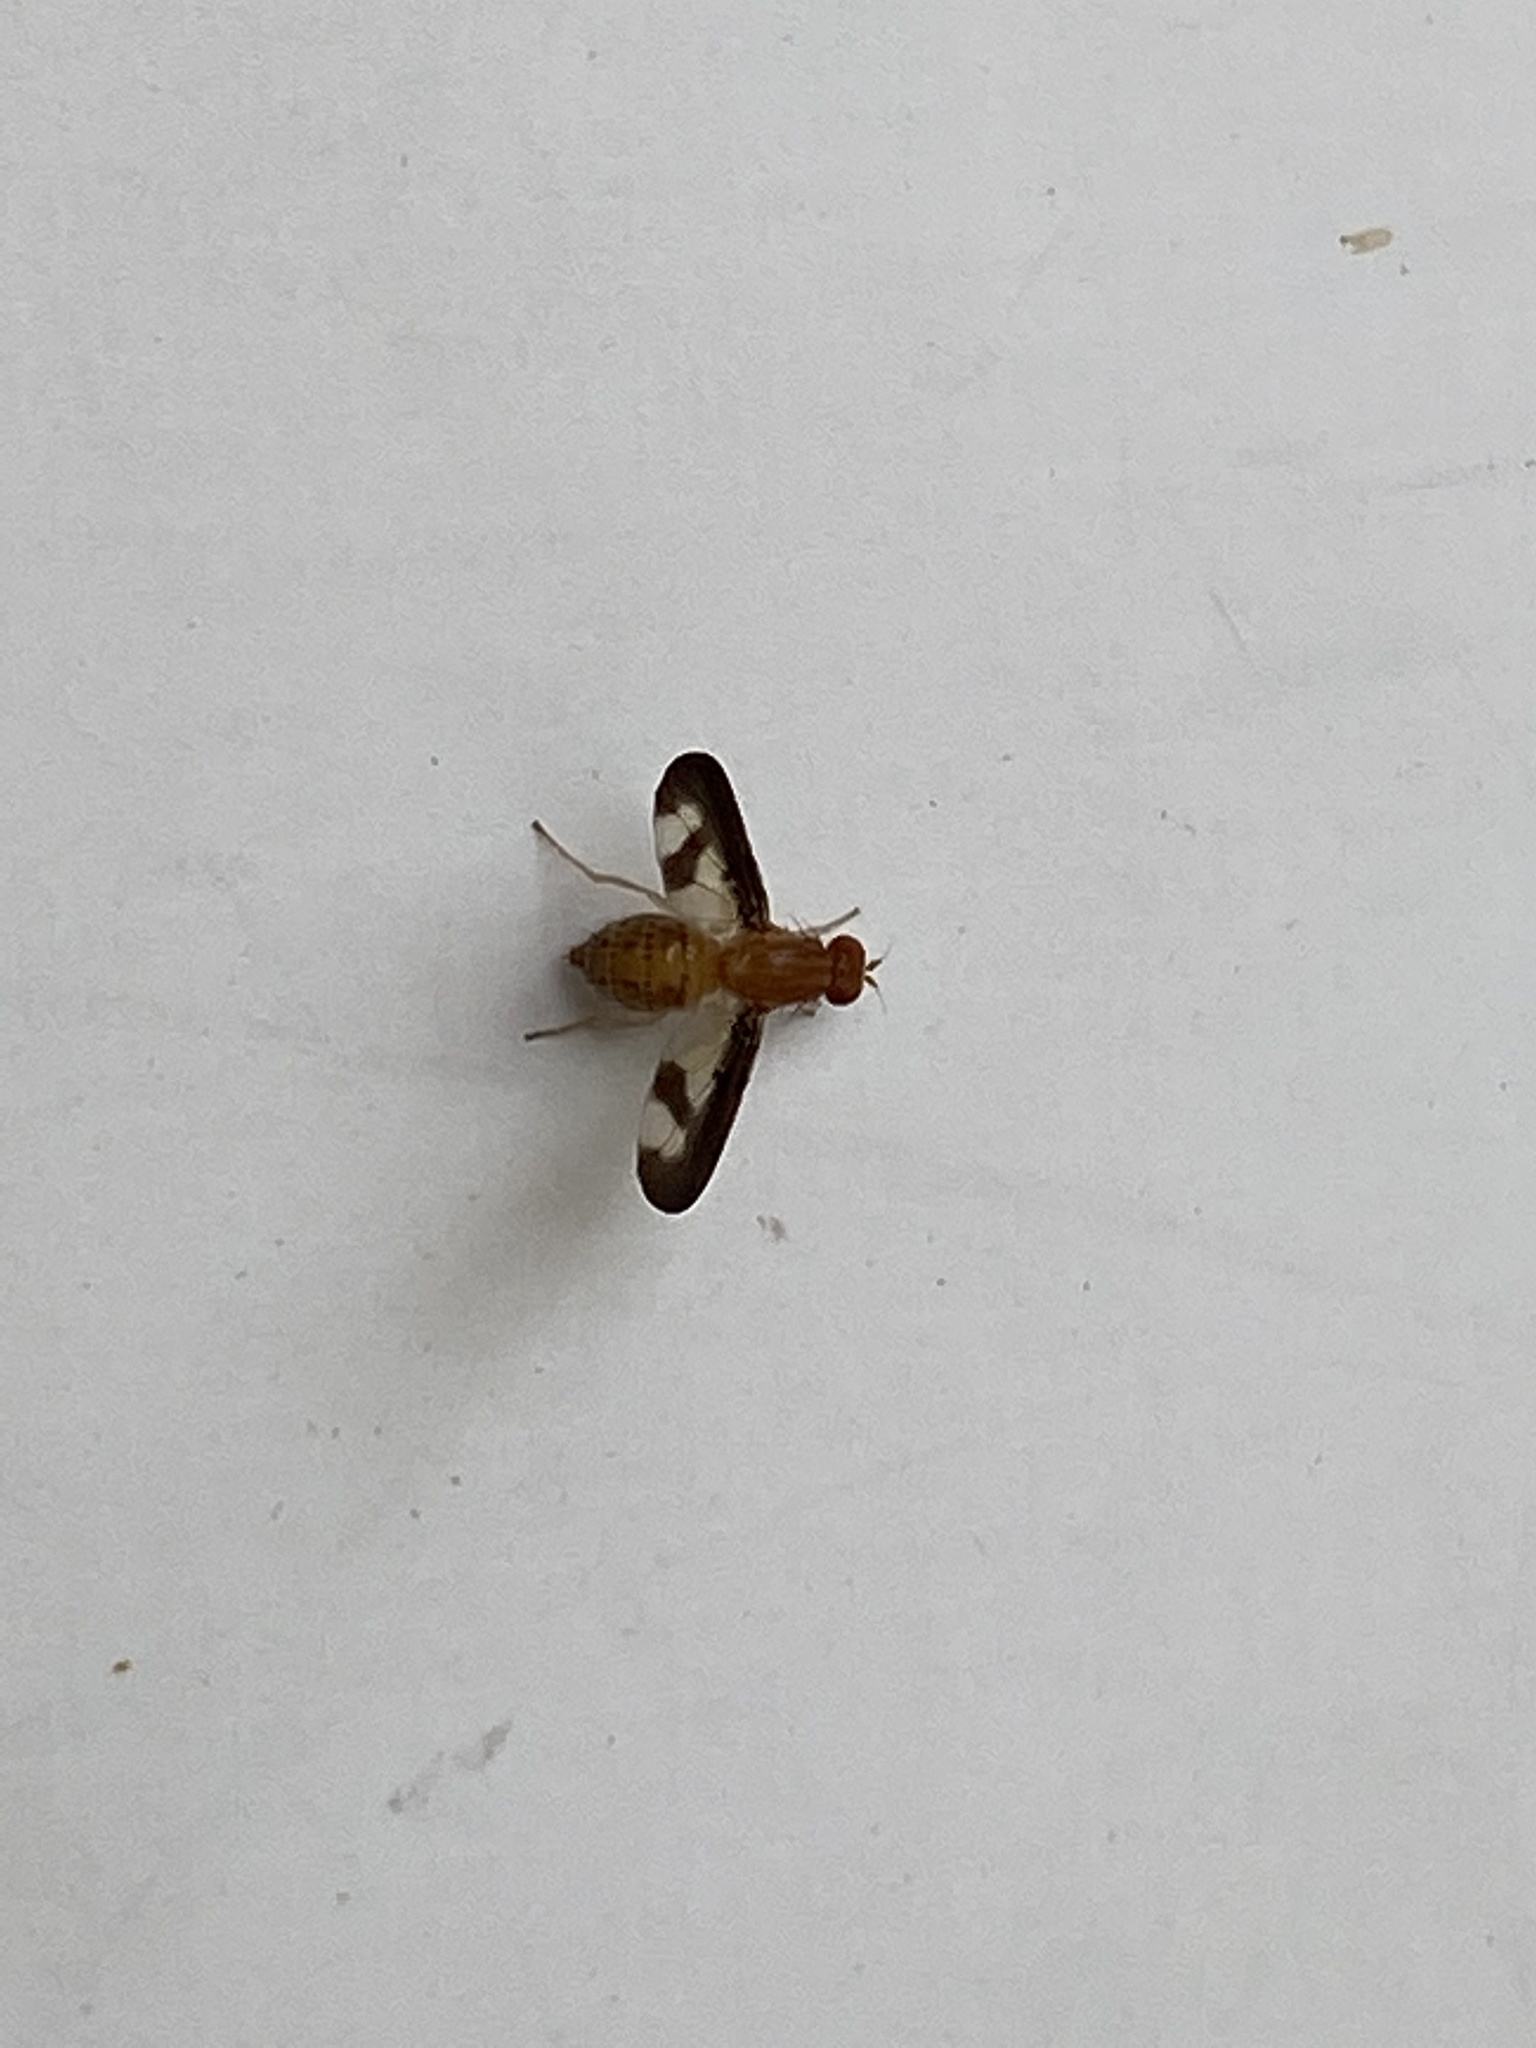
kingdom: Animalia
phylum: Arthropoda
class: Insecta
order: Diptera
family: Pallopteridae
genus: Toxonevra
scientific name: Toxonevra superba
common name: Antlered flutter fly
